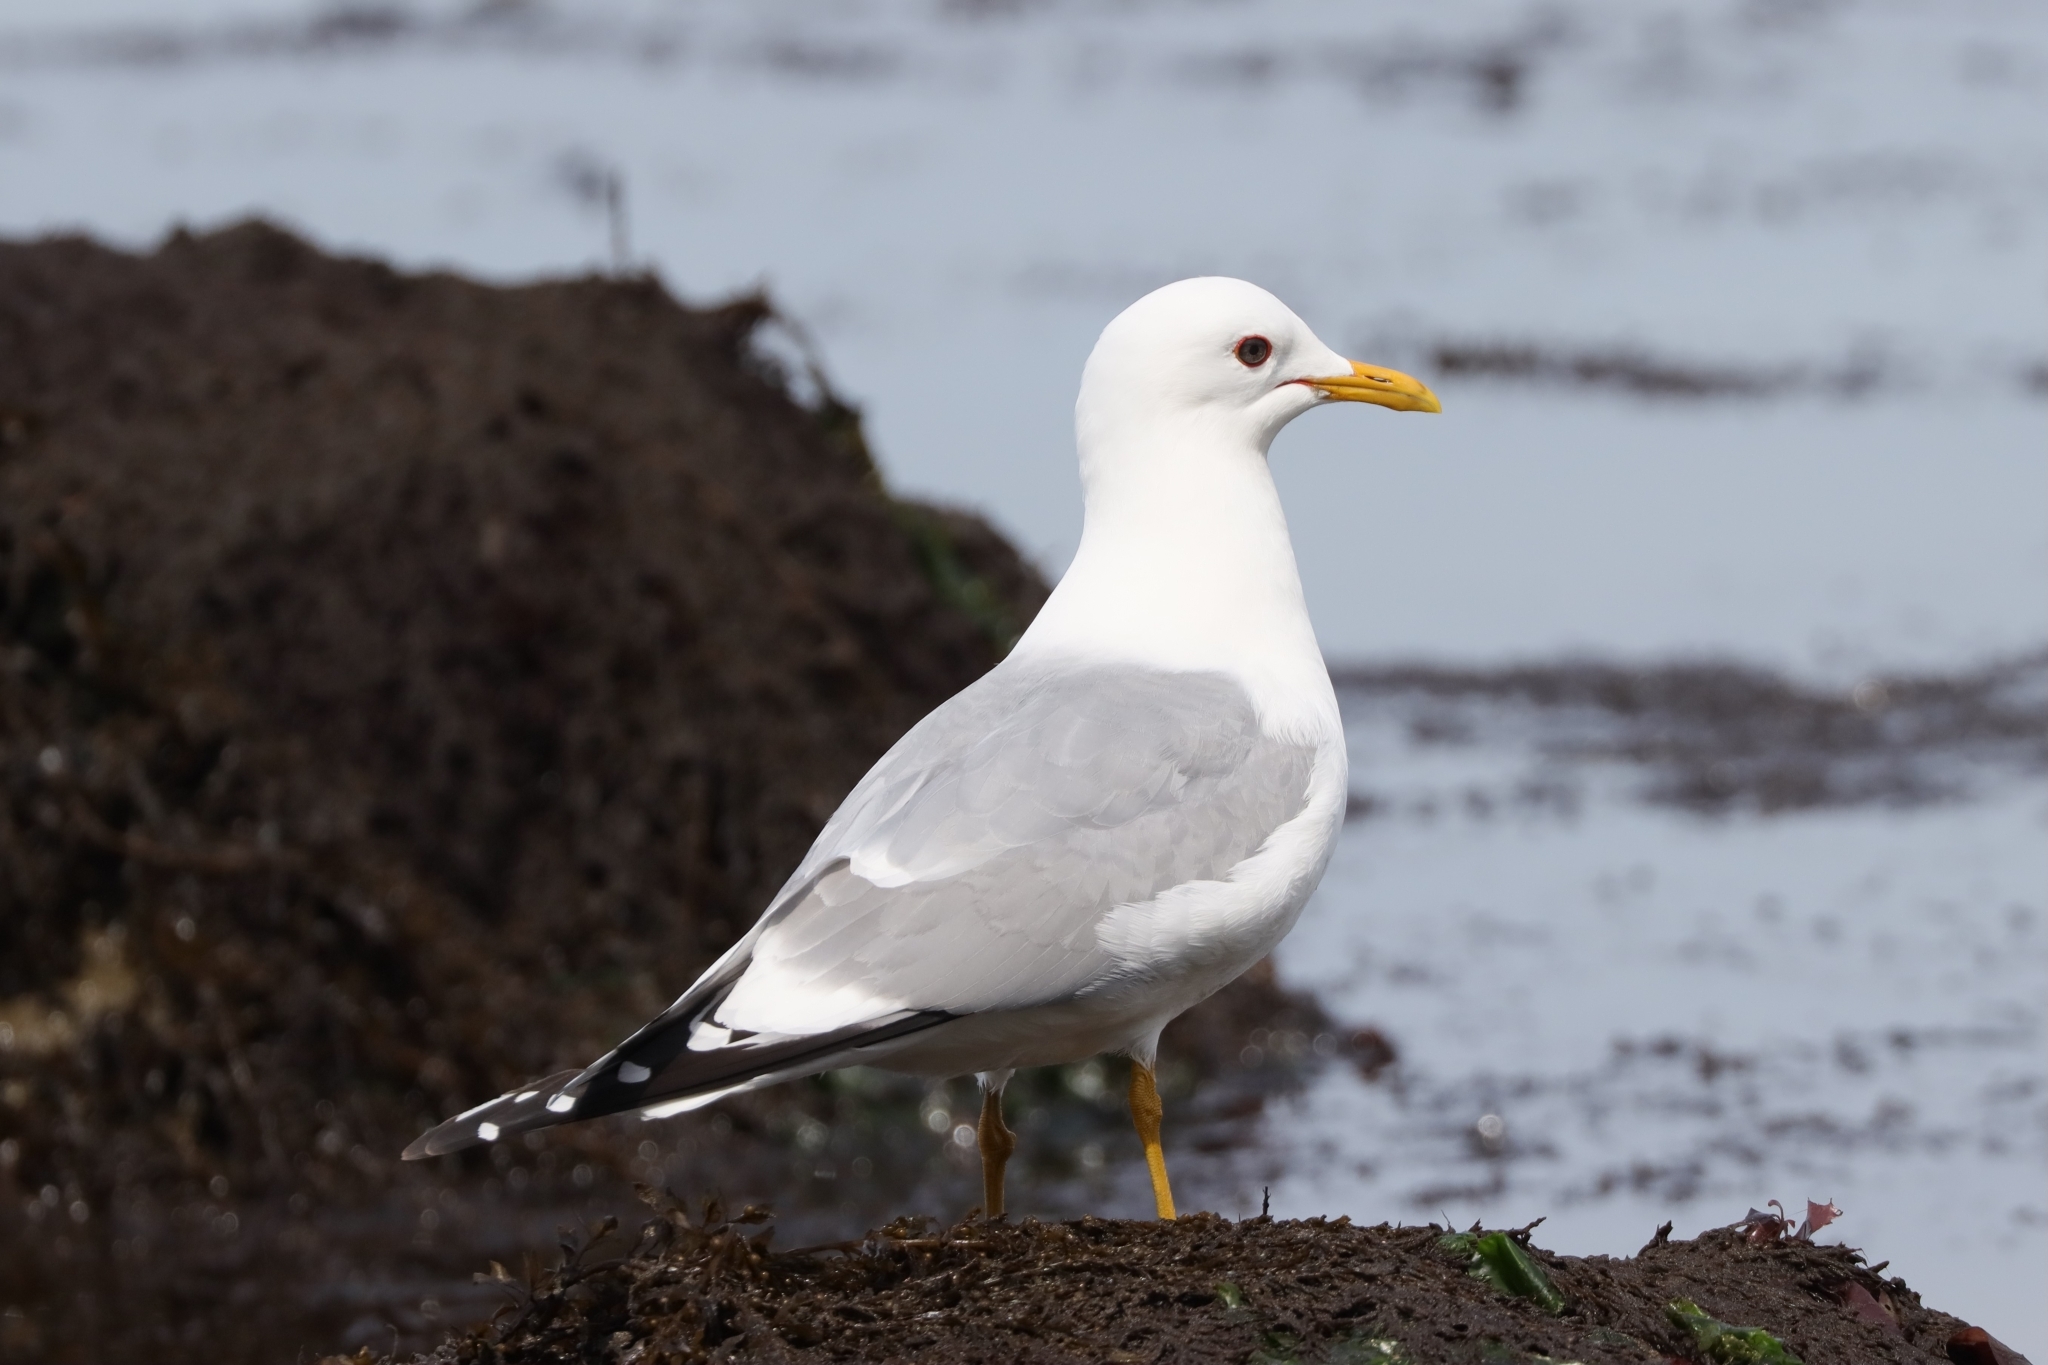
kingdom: Animalia
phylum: Chordata
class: Aves
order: Charadriiformes
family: Laridae
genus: Larus
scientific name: Larus brachyrhynchus
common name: Short-billed gull
